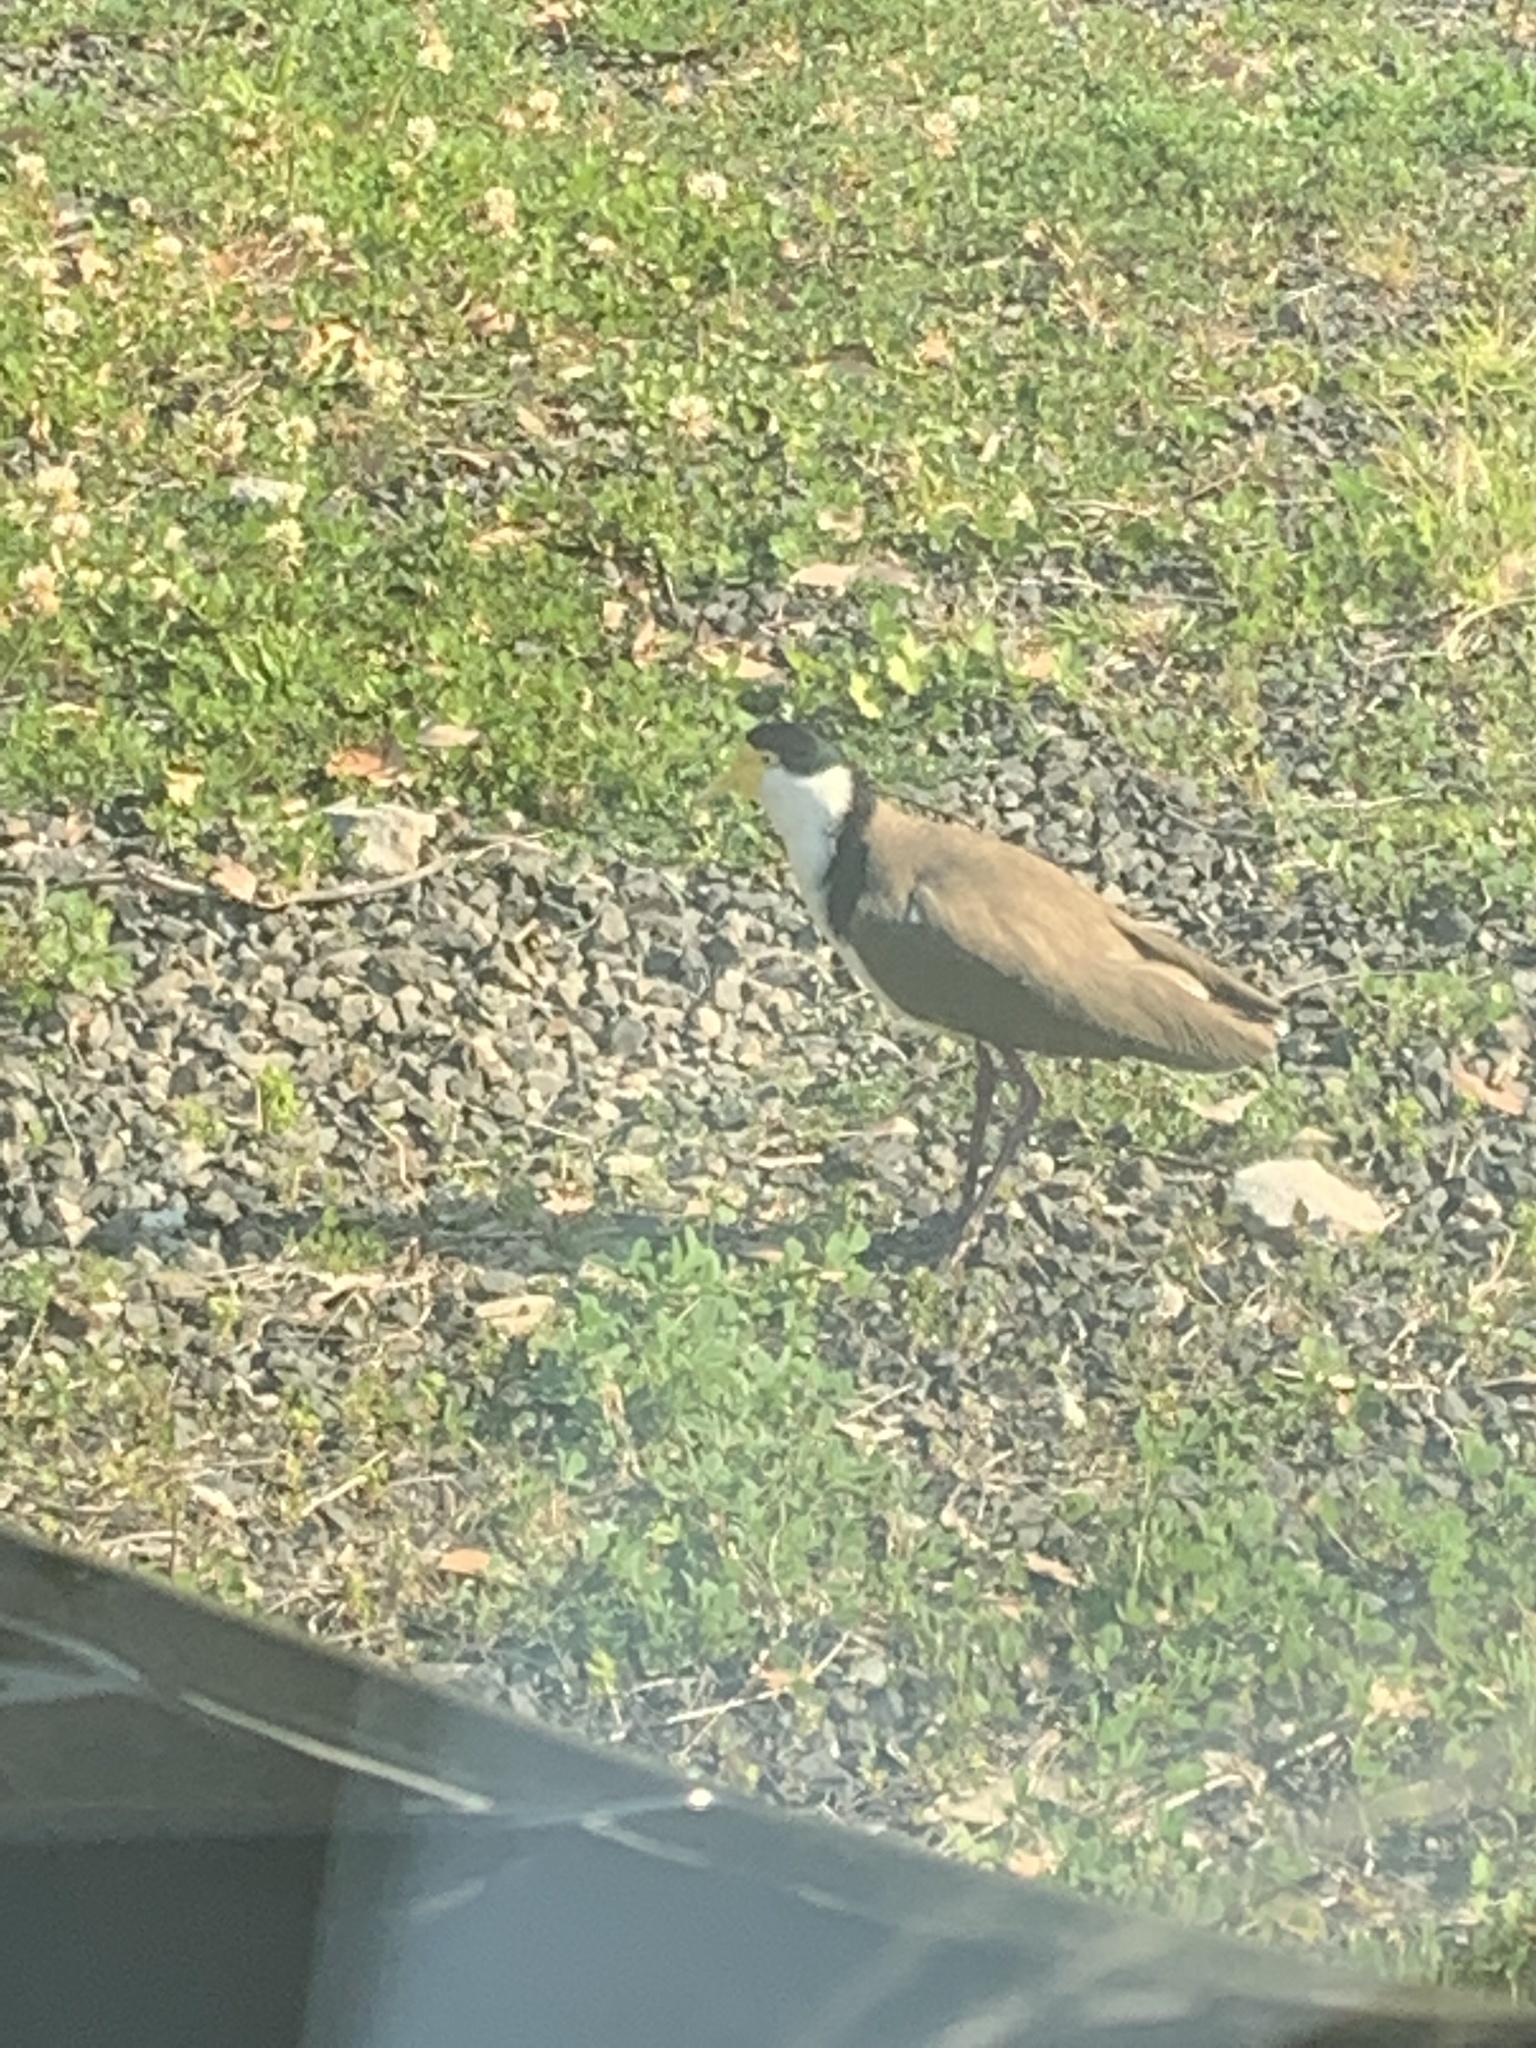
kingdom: Animalia
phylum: Chordata
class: Aves
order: Charadriiformes
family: Charadriidae
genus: Vanellus
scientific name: Vanellus miles
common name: Masked lapwing
